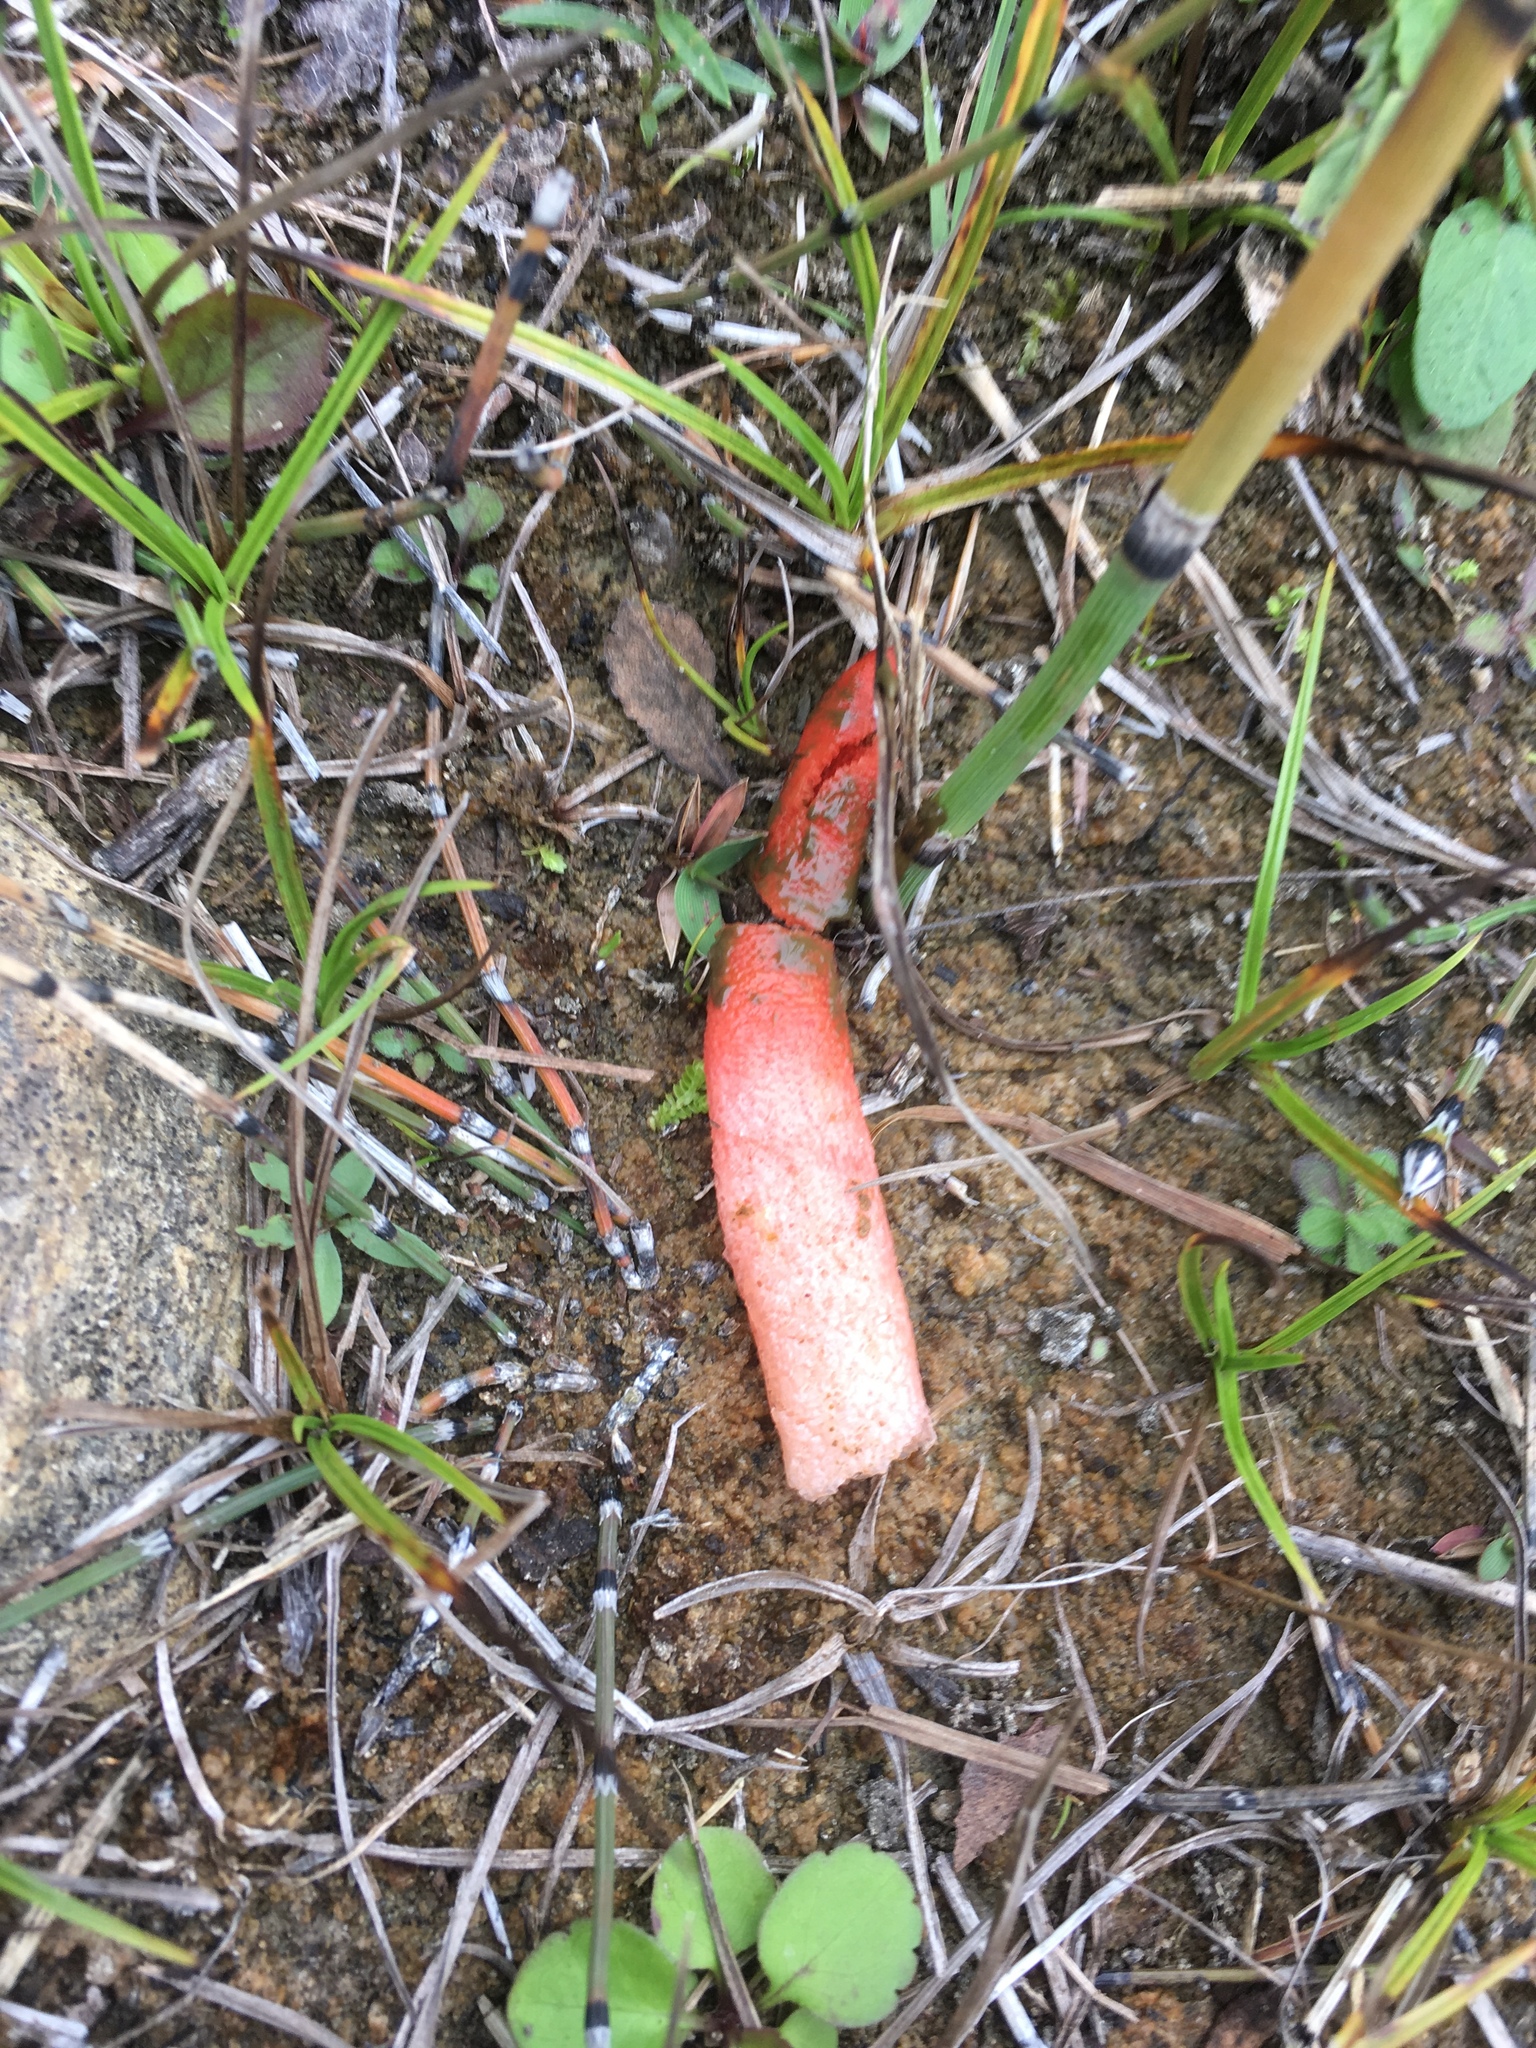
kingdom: Fungi
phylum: Basidiomycota
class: Agaricomycetes
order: Phallales
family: Phallaceae
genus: Mutinus
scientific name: Mutinus elegans
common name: Devil's dipstick
